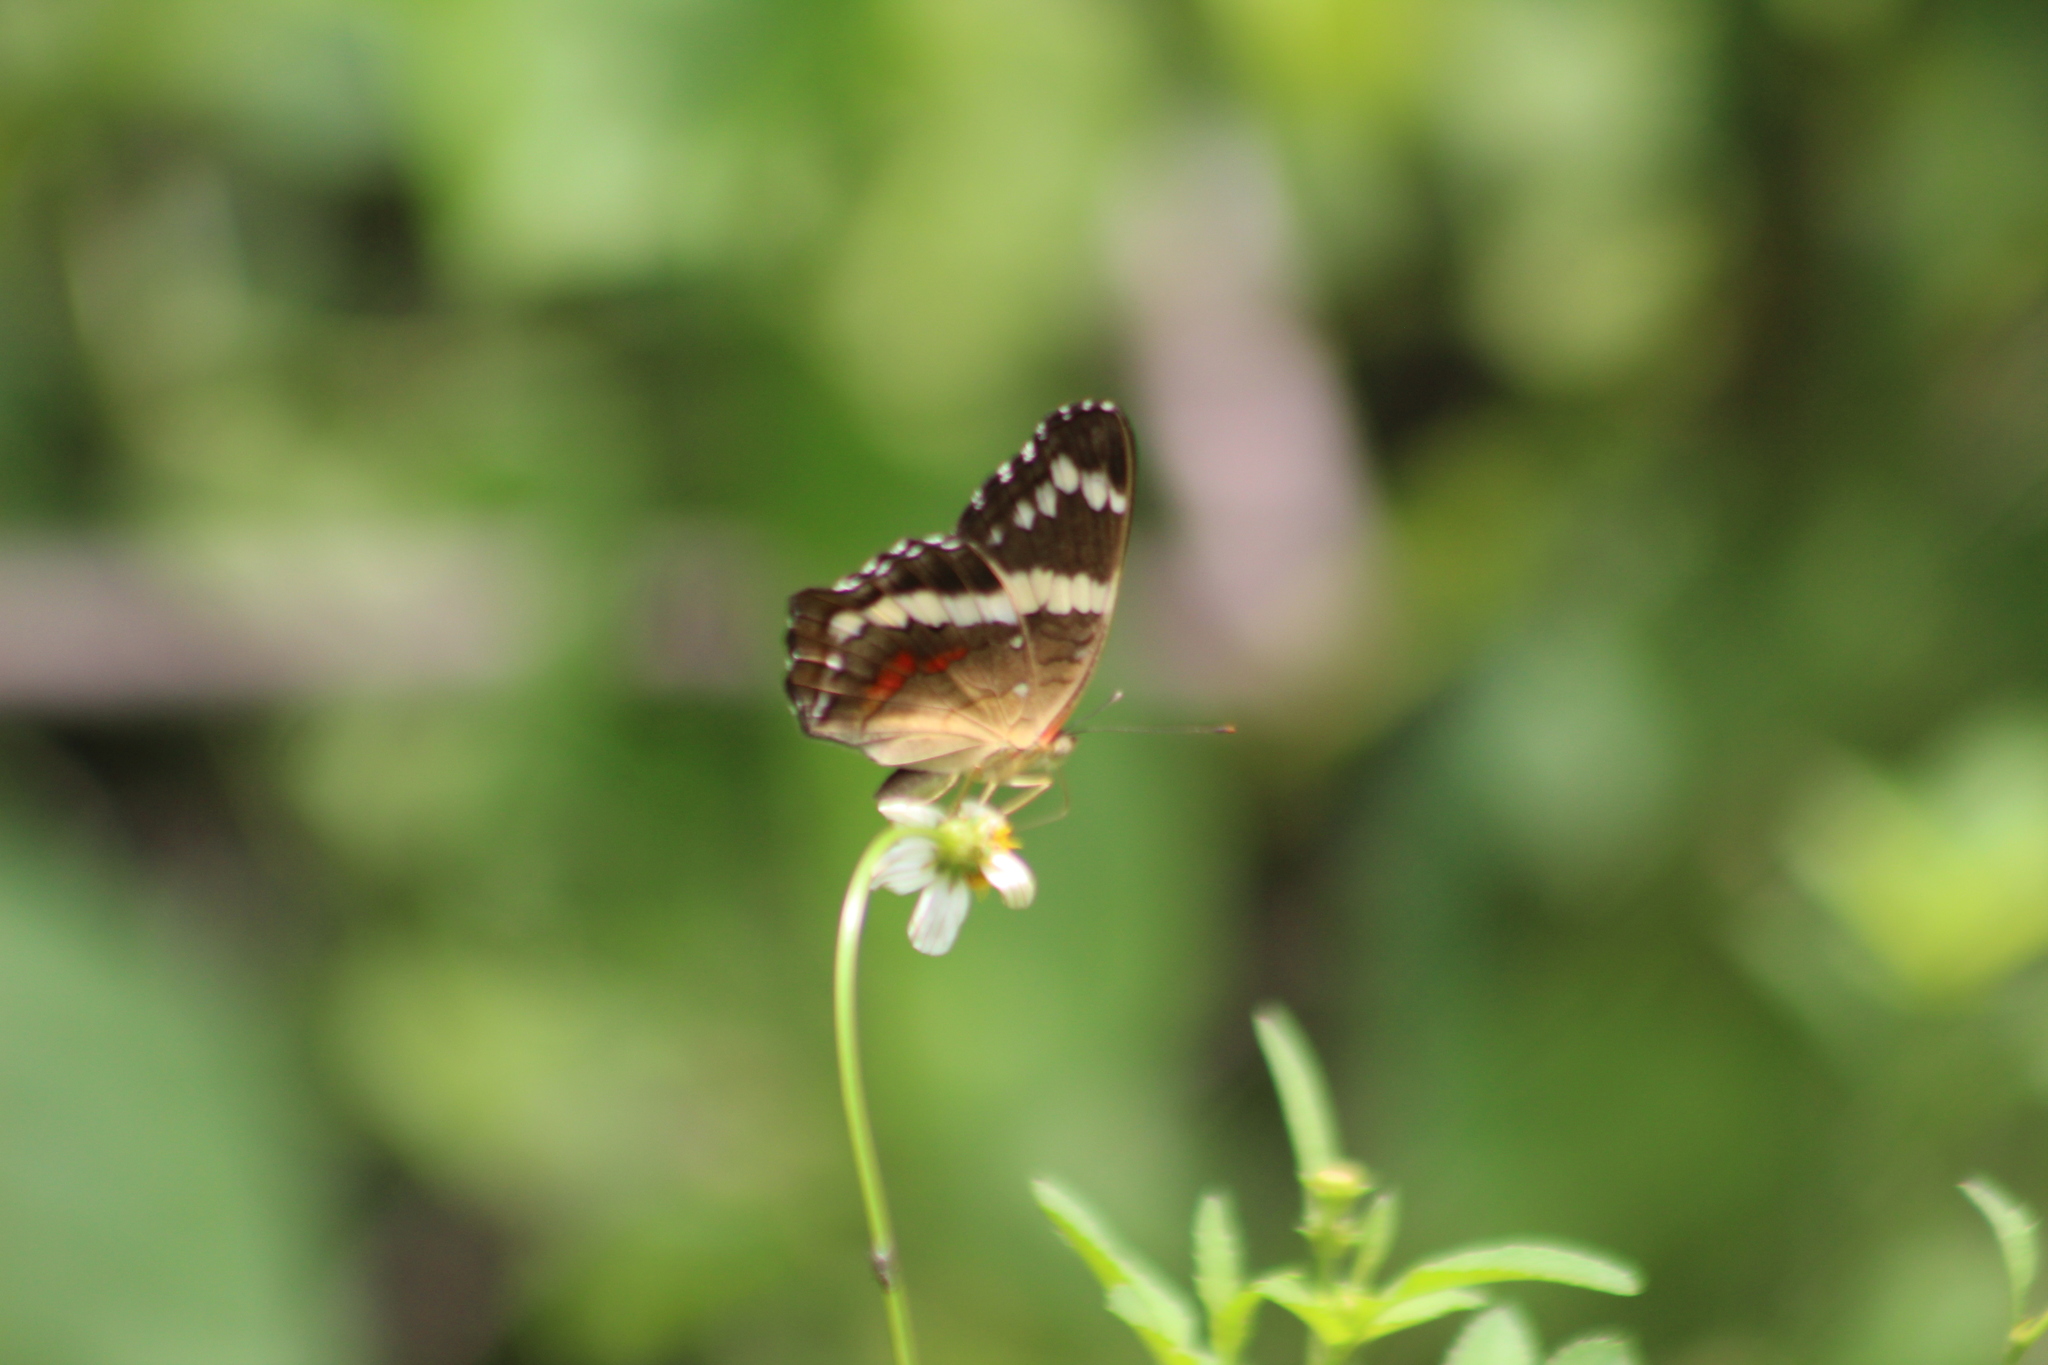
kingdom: Animalia
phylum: Arthropoda
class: Insecta
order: Lepidoptera
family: Nymphalidae
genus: Anartia
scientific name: Anartia fatima
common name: Banded peacock
